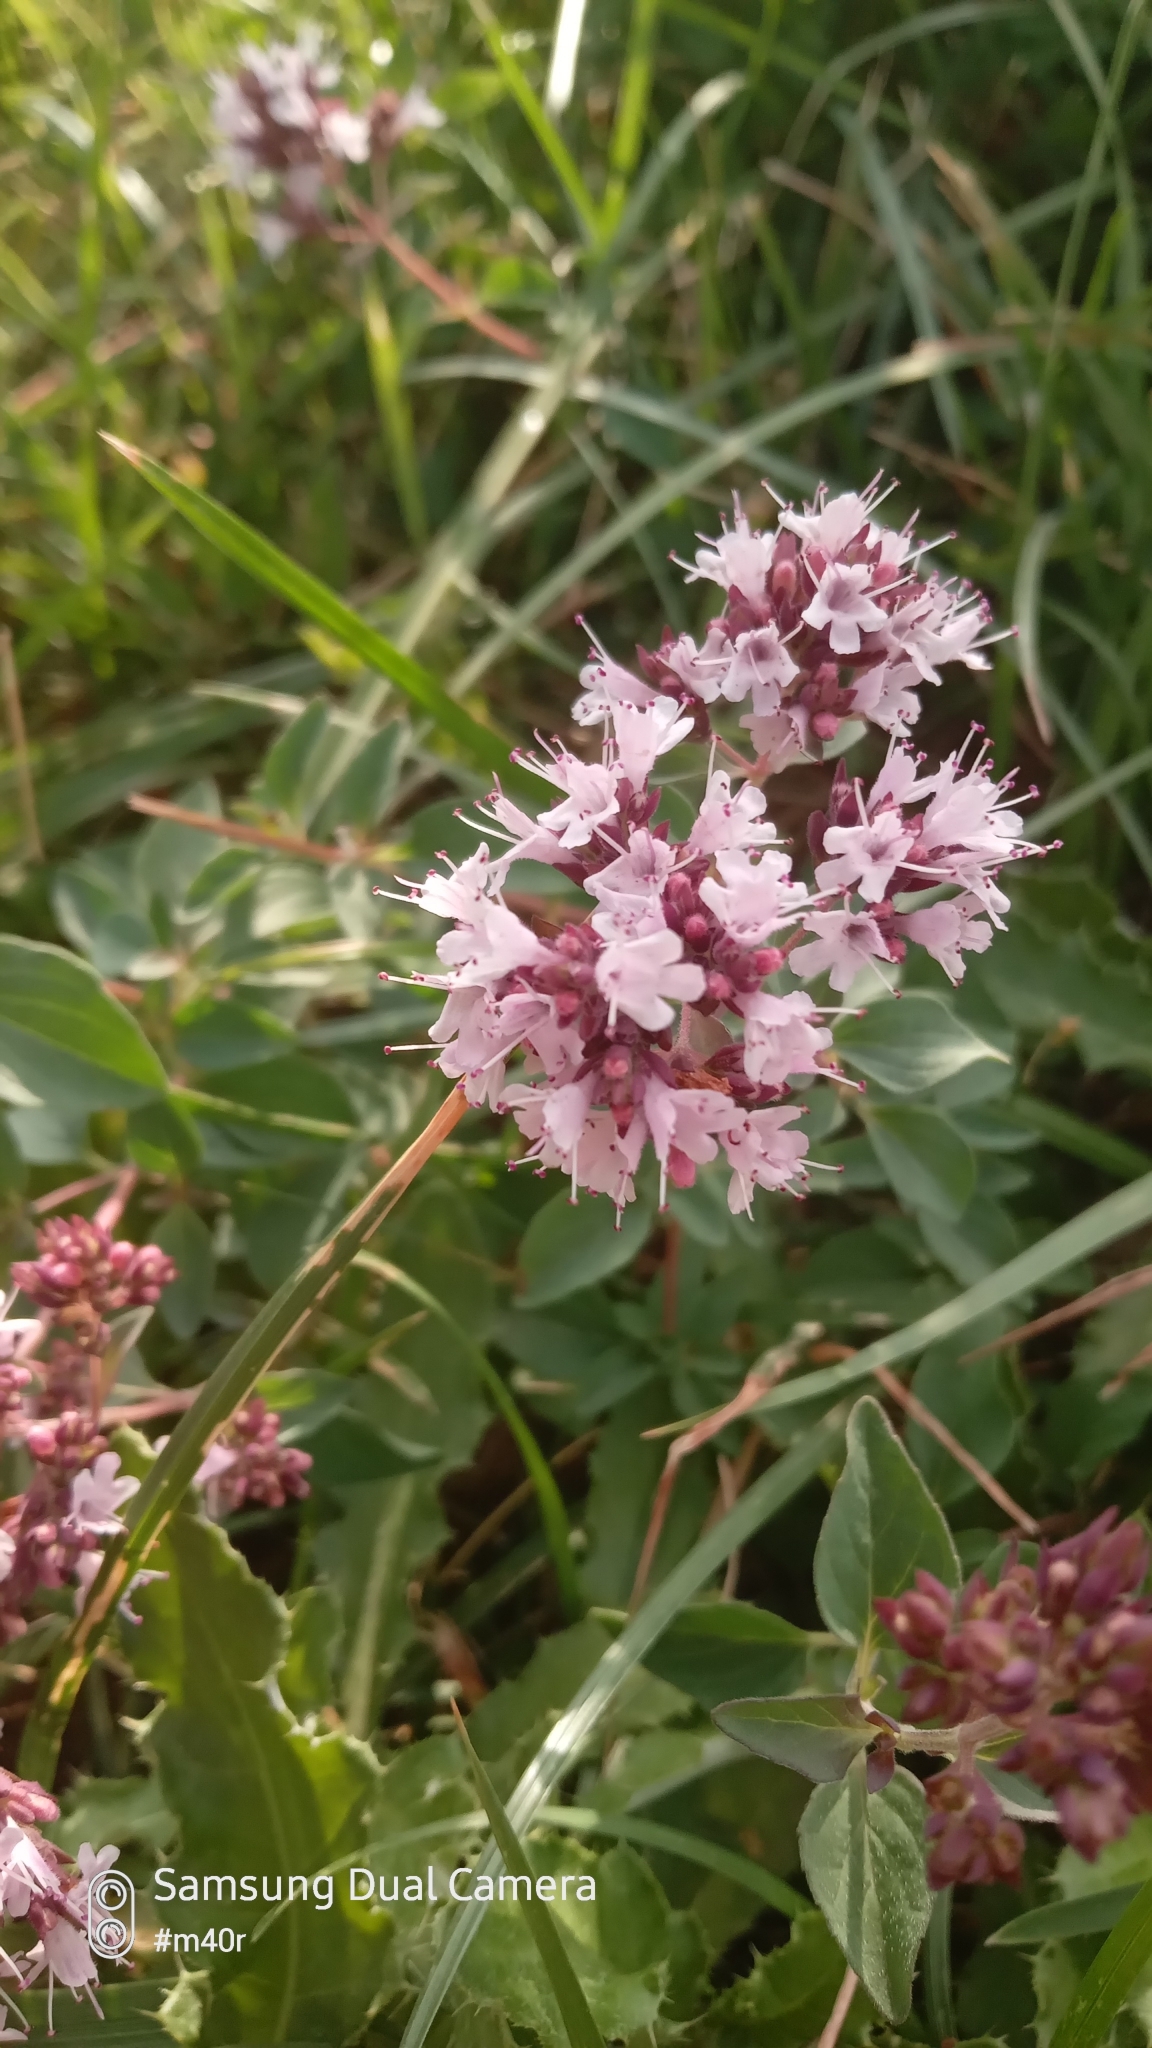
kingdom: Plantae
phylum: Tracheophyta
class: Magnoliopsida
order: Lamiales
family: Lamiaceae
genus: Origanum
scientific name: Origanum vulgare
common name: Wild marjoram
